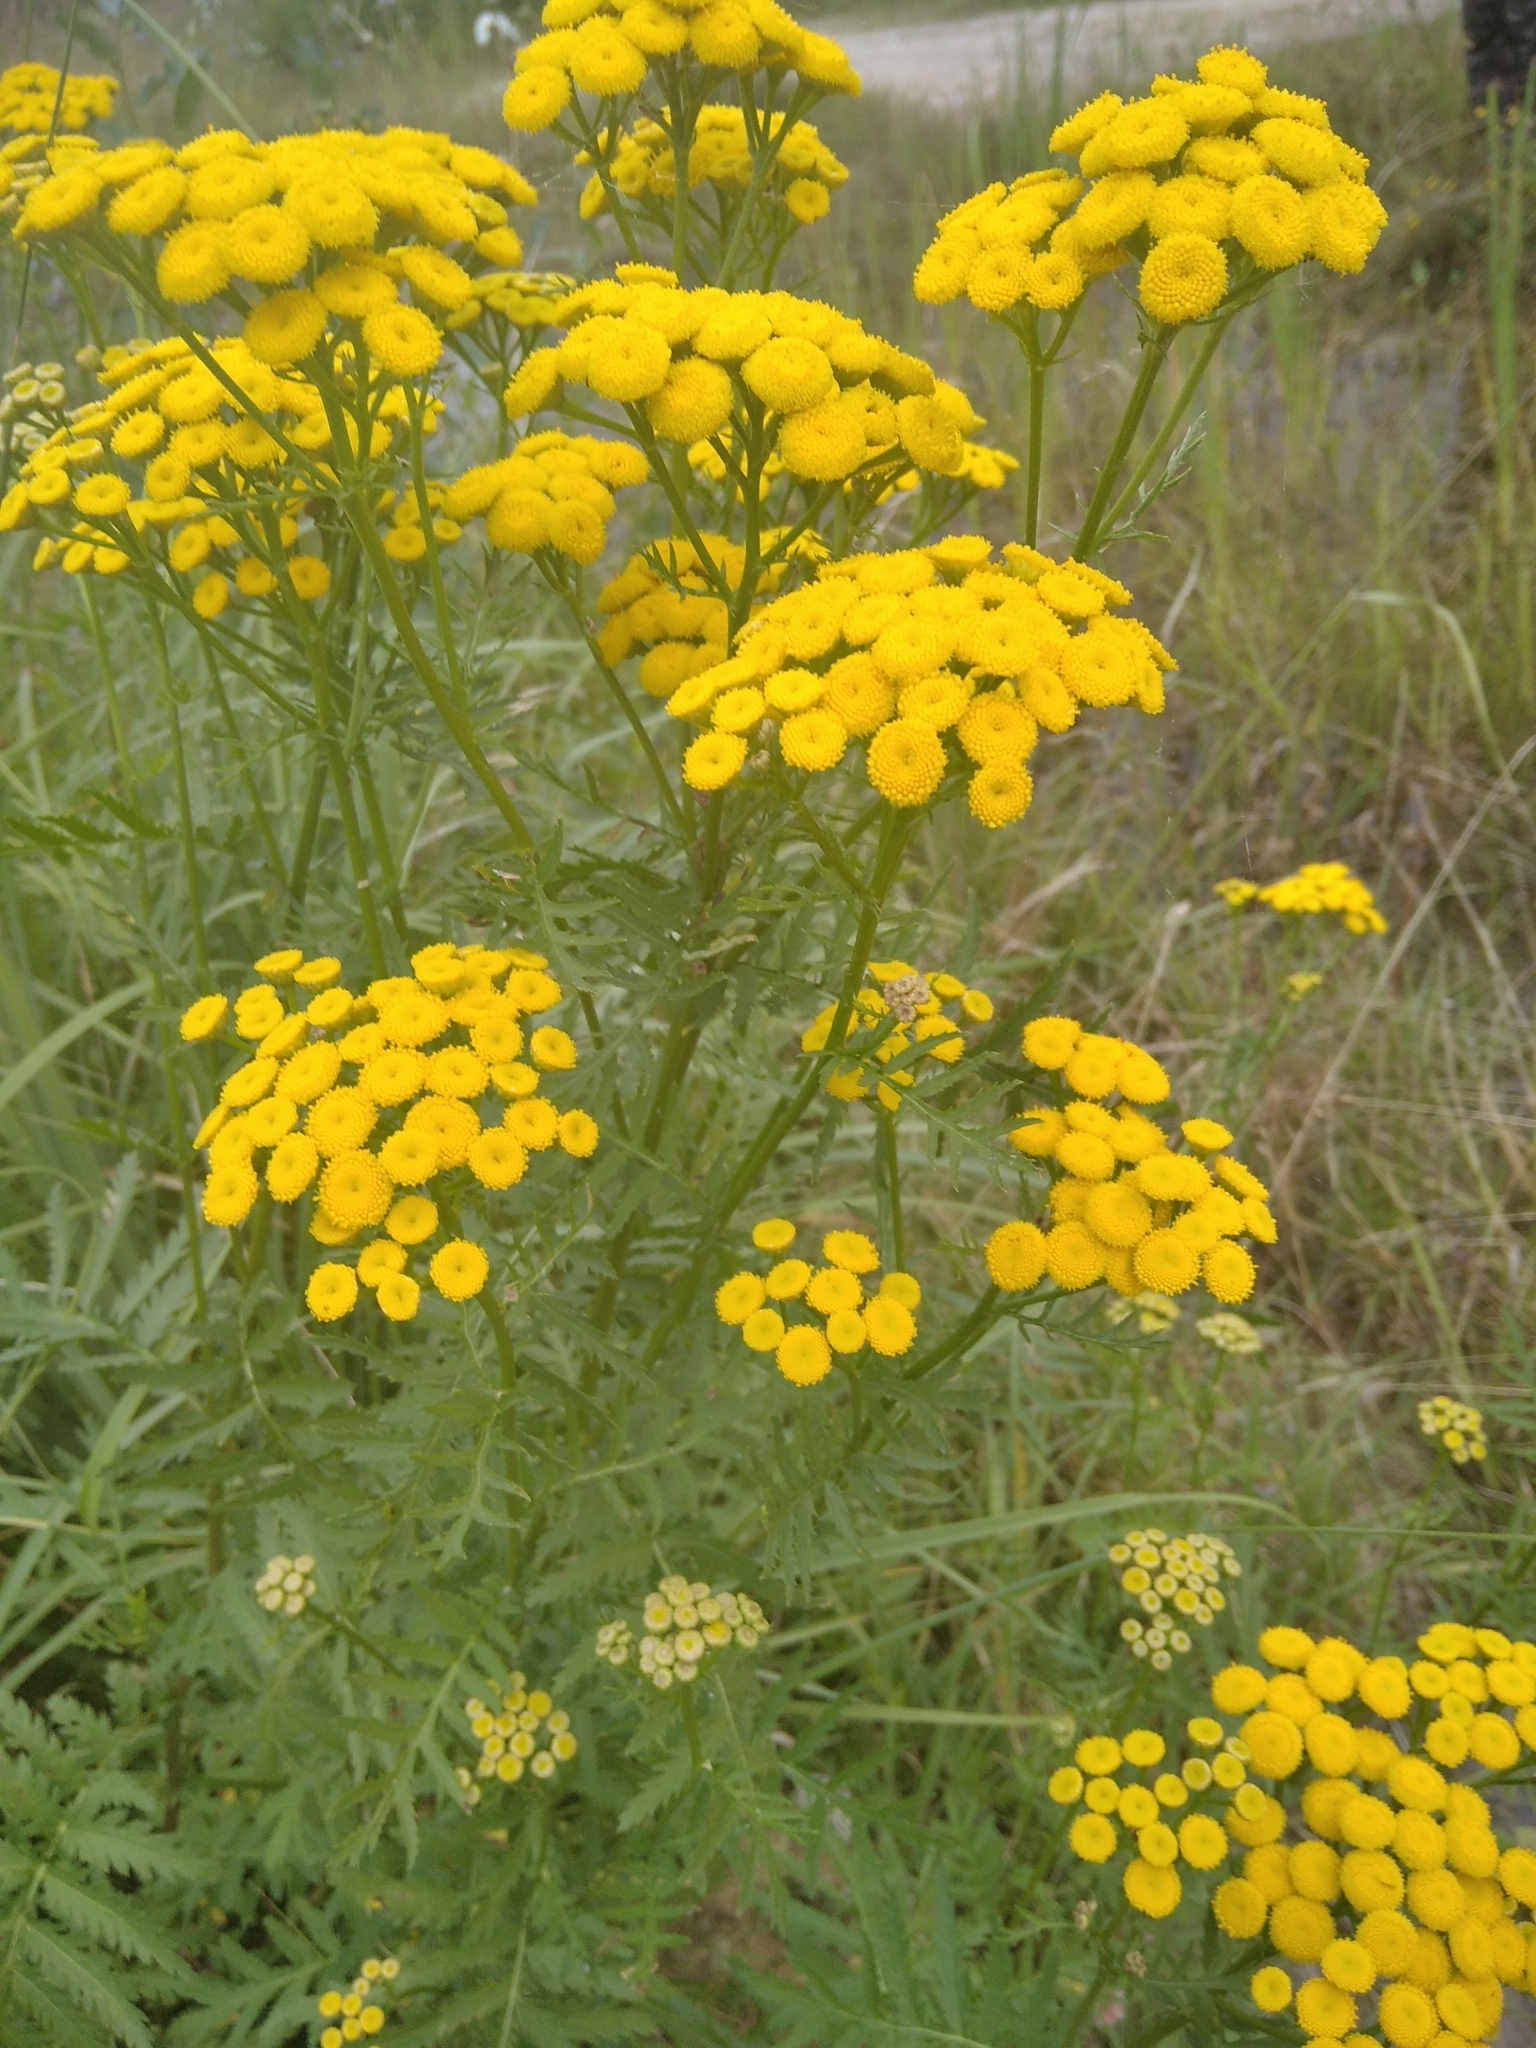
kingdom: Plantae
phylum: Tracheophyta
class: Magnoliopsida
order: Asterales
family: Asteraceae
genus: Tanacetum
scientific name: Tanacetum vulgare
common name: Common tansy
